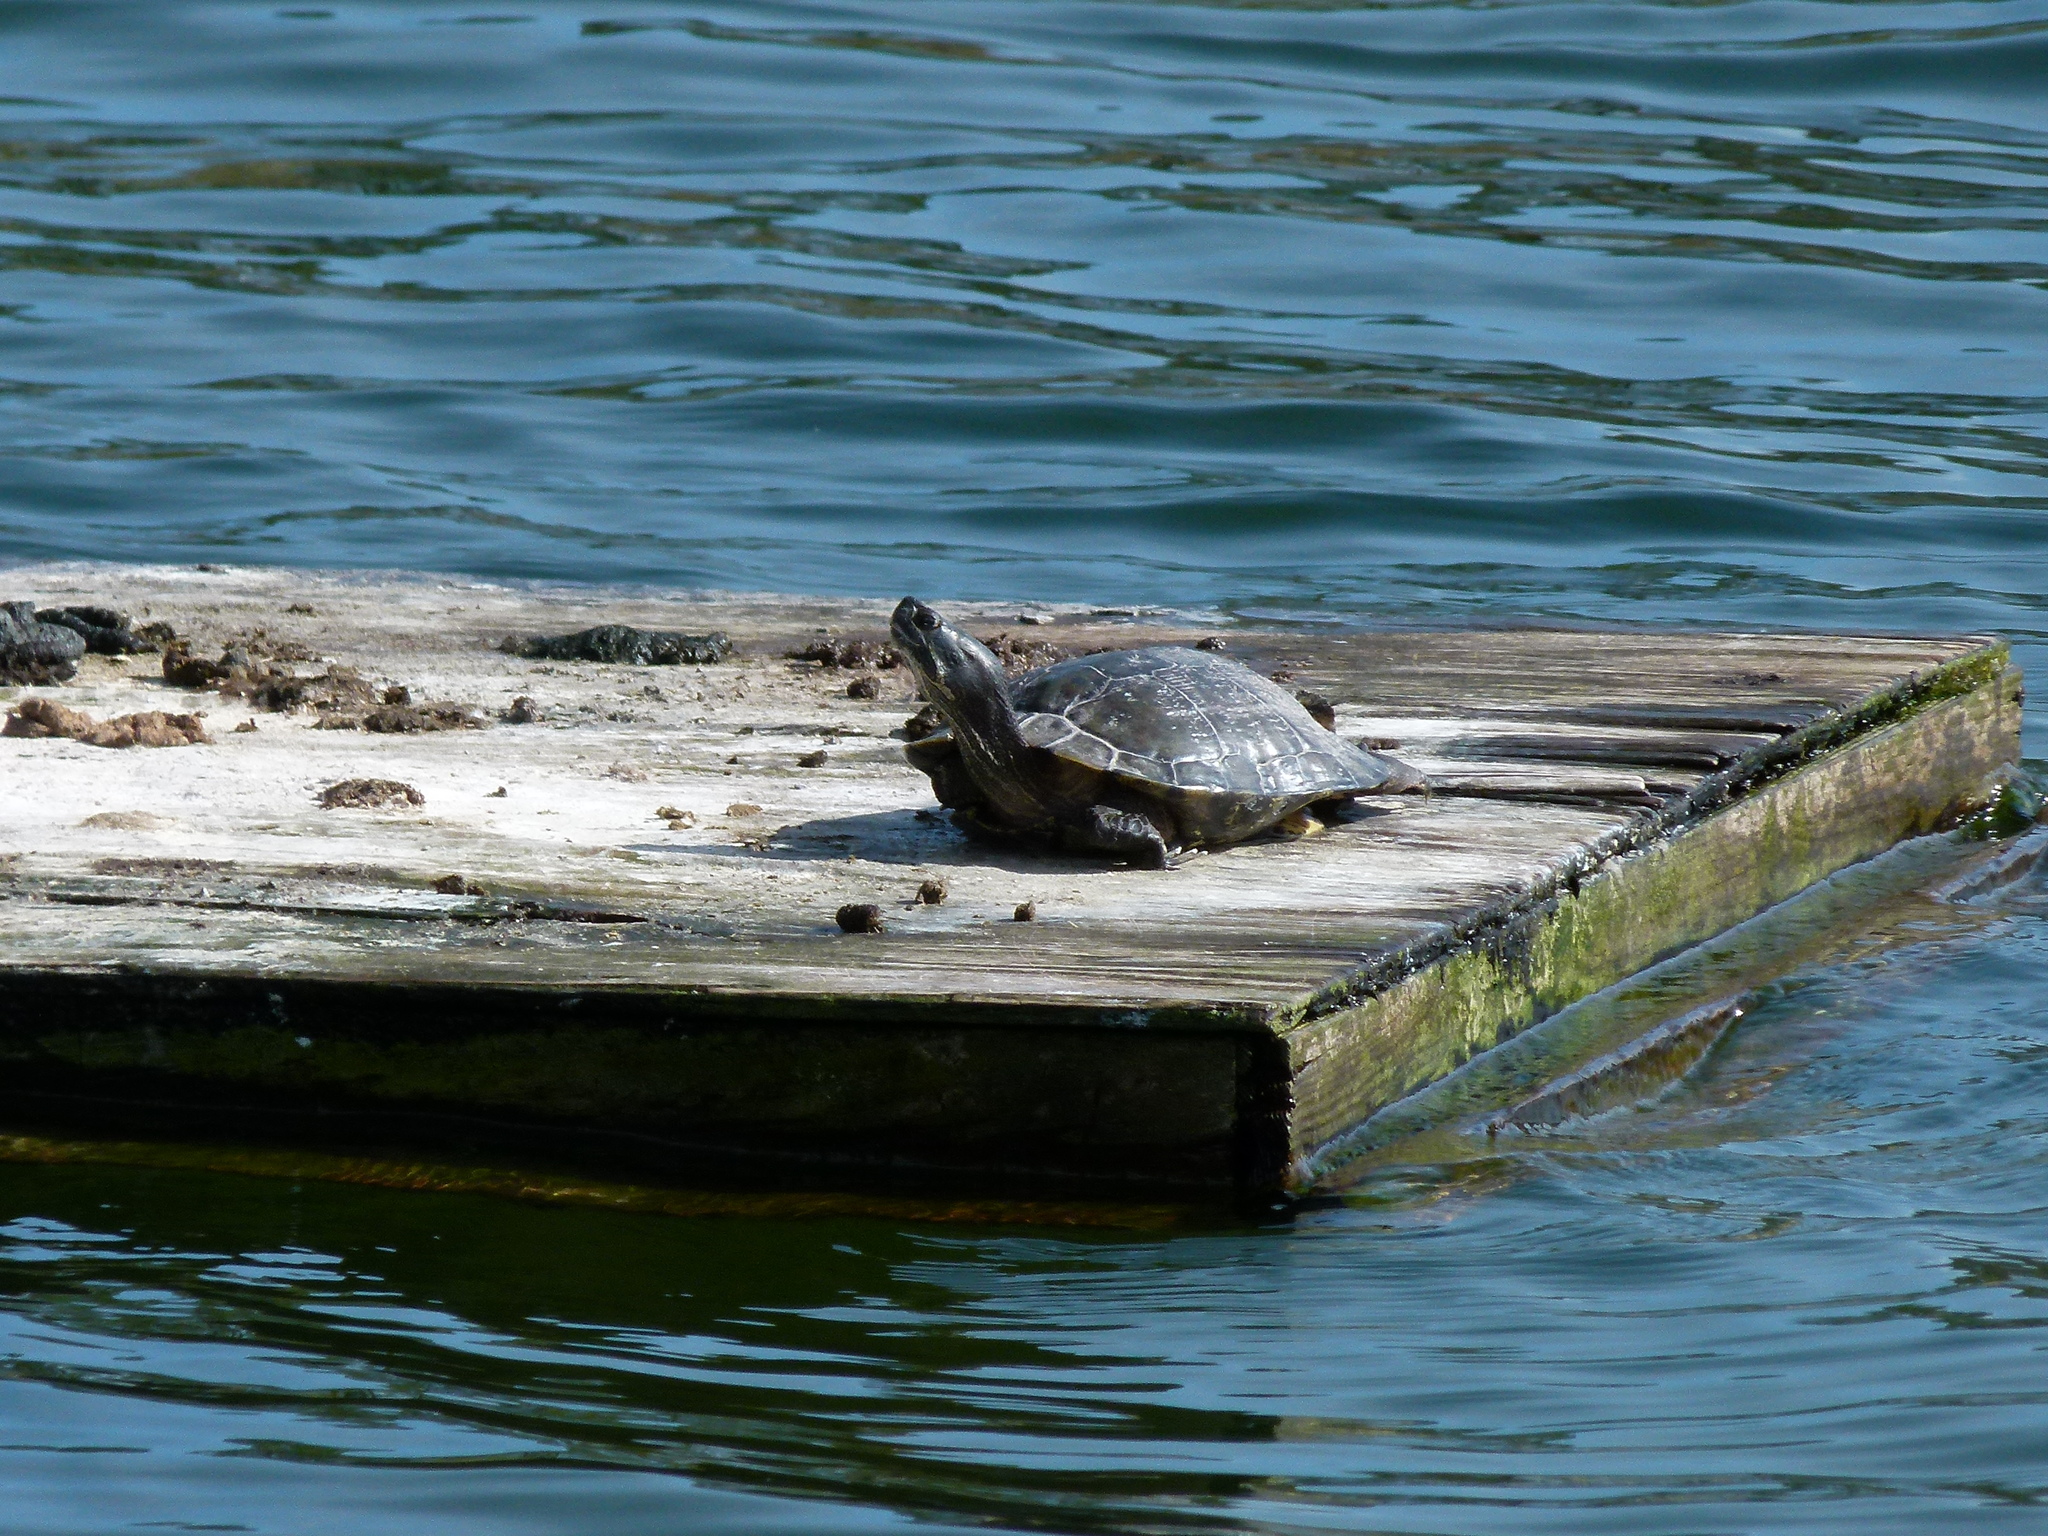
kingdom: Animalia
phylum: Chordata
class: Testudines
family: Emydidae
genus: Trachemys
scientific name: Trachemys scripta
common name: Slider
